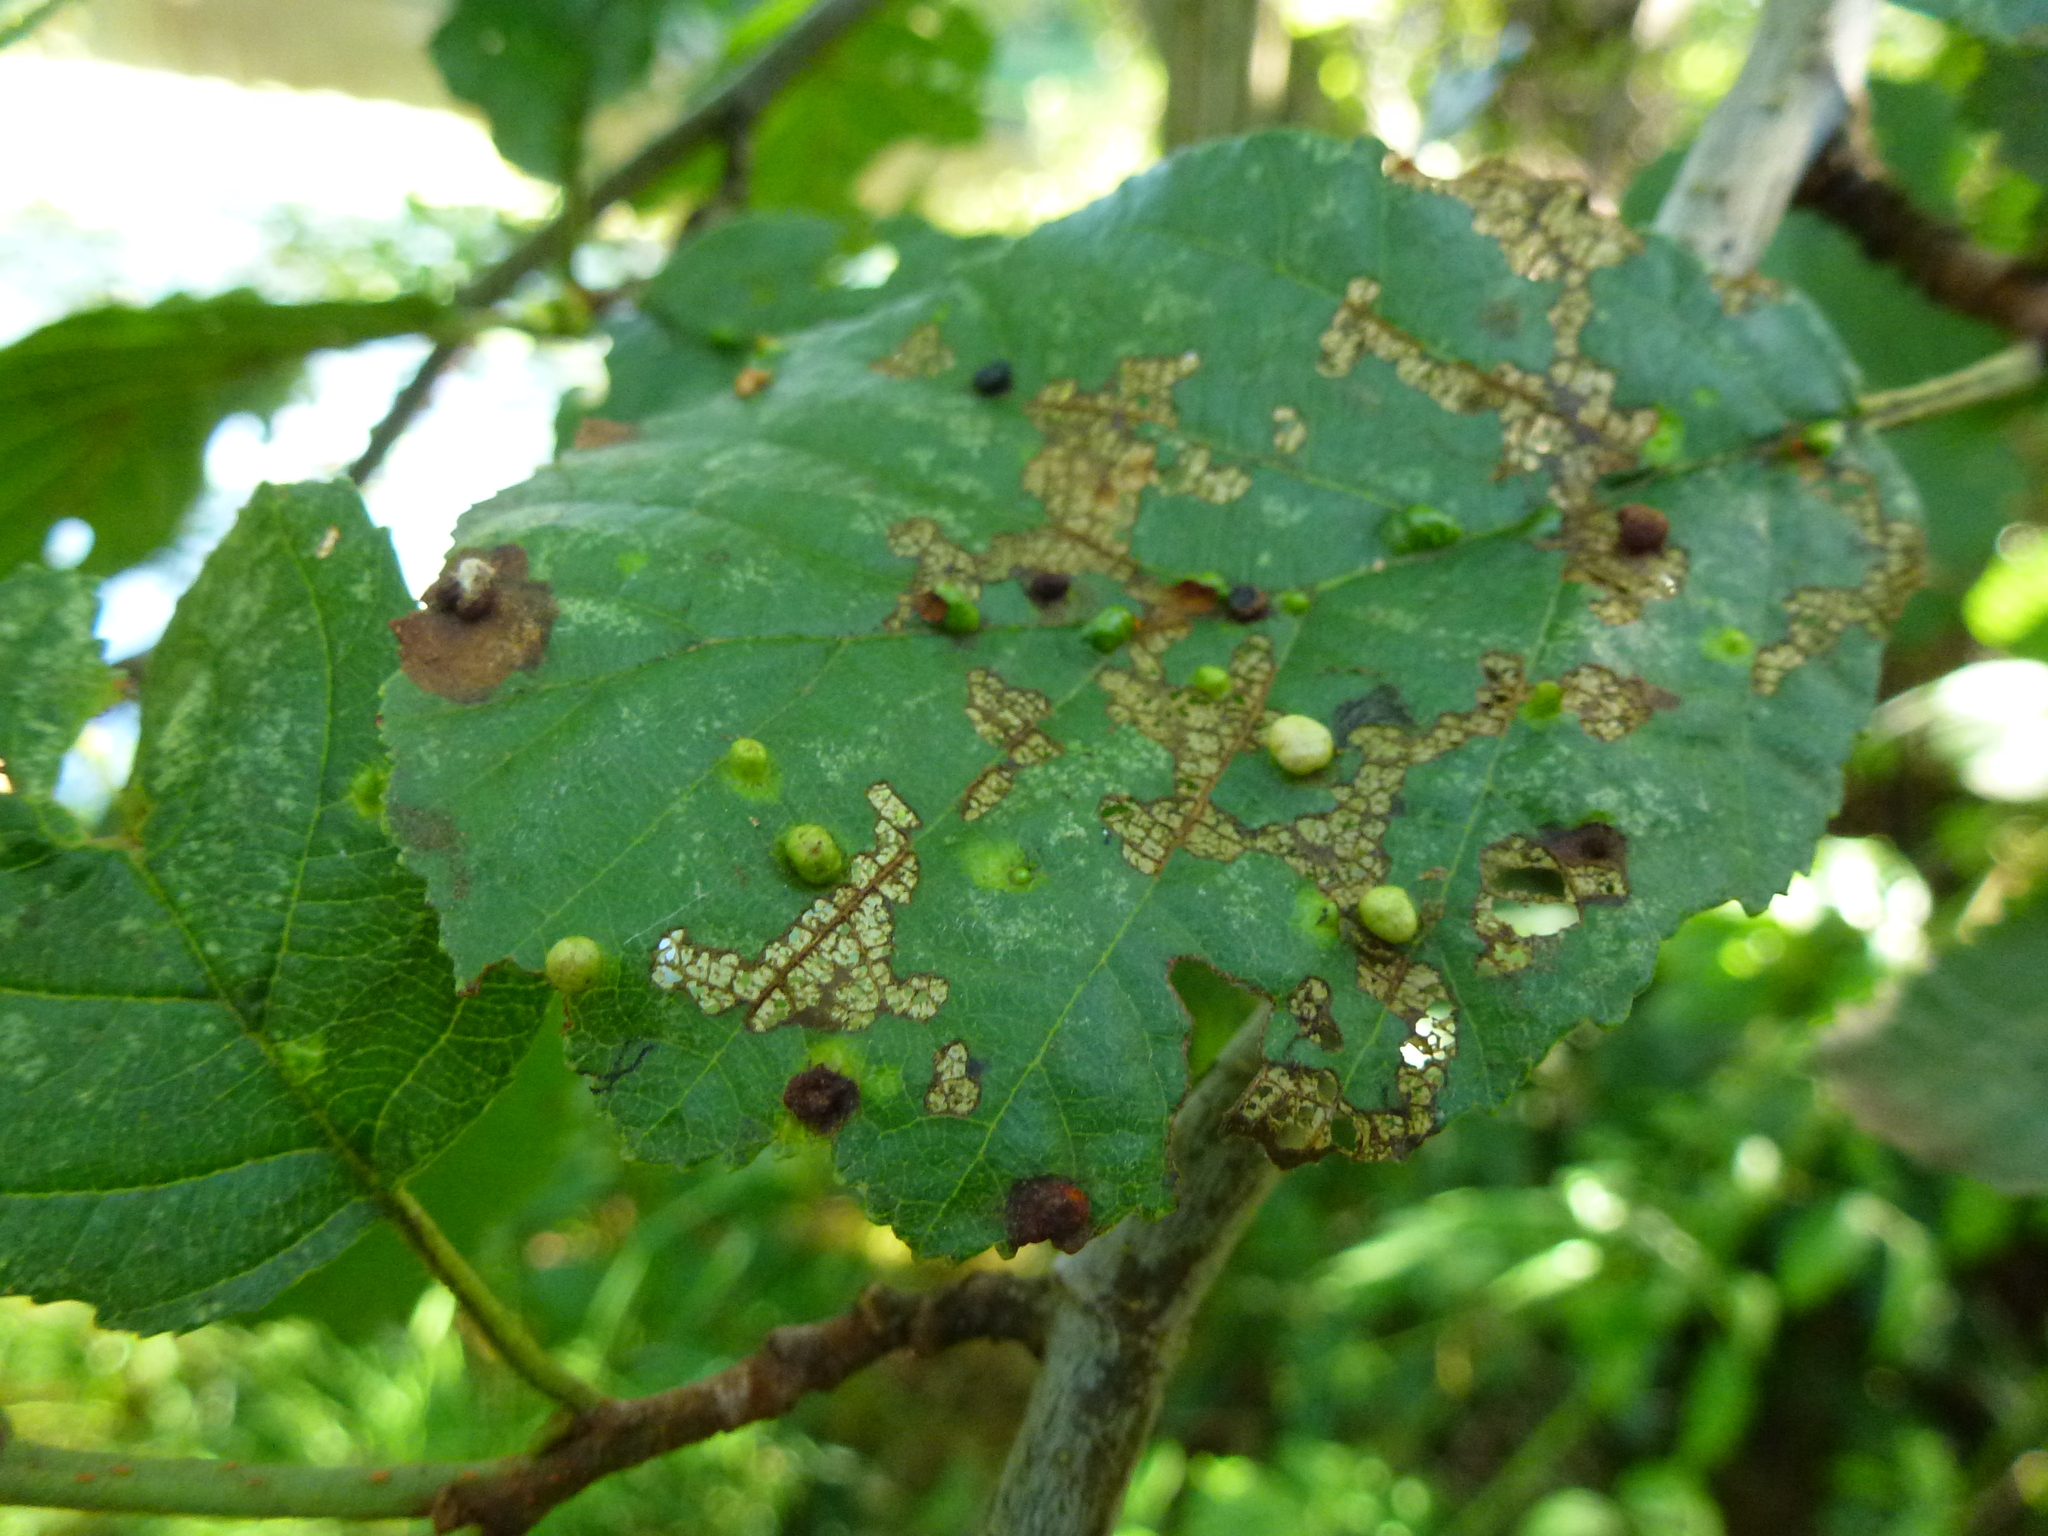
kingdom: Animalia
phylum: Arthropoda
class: Arachnida
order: Trombidiformes
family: Eriophyidae
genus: Eriophyes
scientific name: Eriophyes laevis
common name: Alder leaf gall mite
